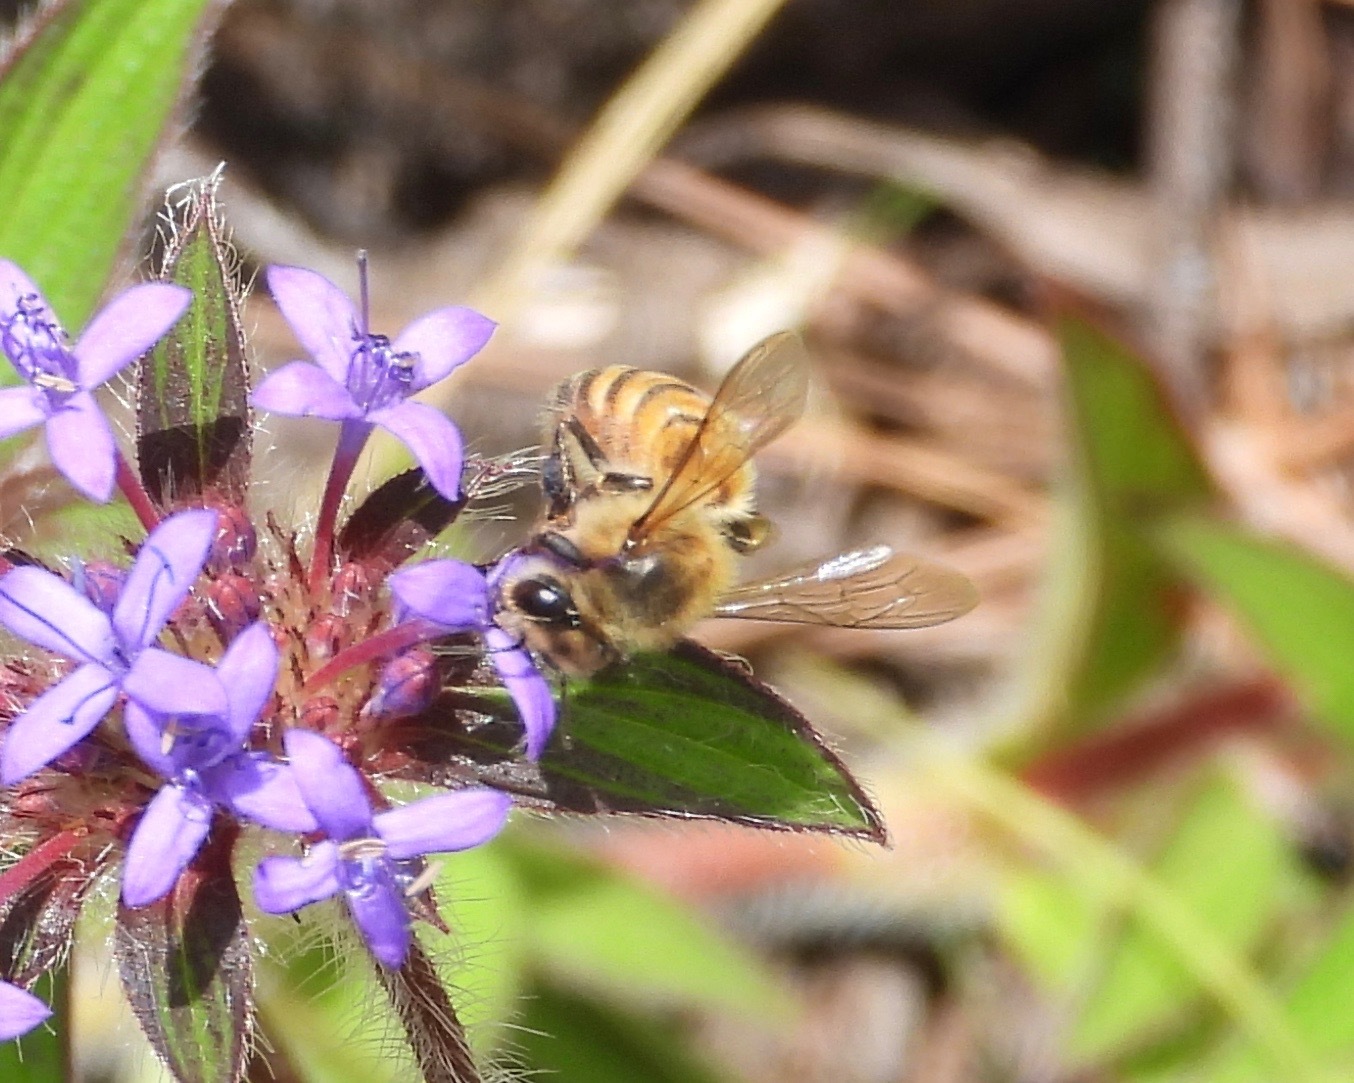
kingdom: Animalia
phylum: Arthropoda
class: Insecta
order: Hymenoptera
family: Apidae
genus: Apis
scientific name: Apis mellifera
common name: Honey bee
